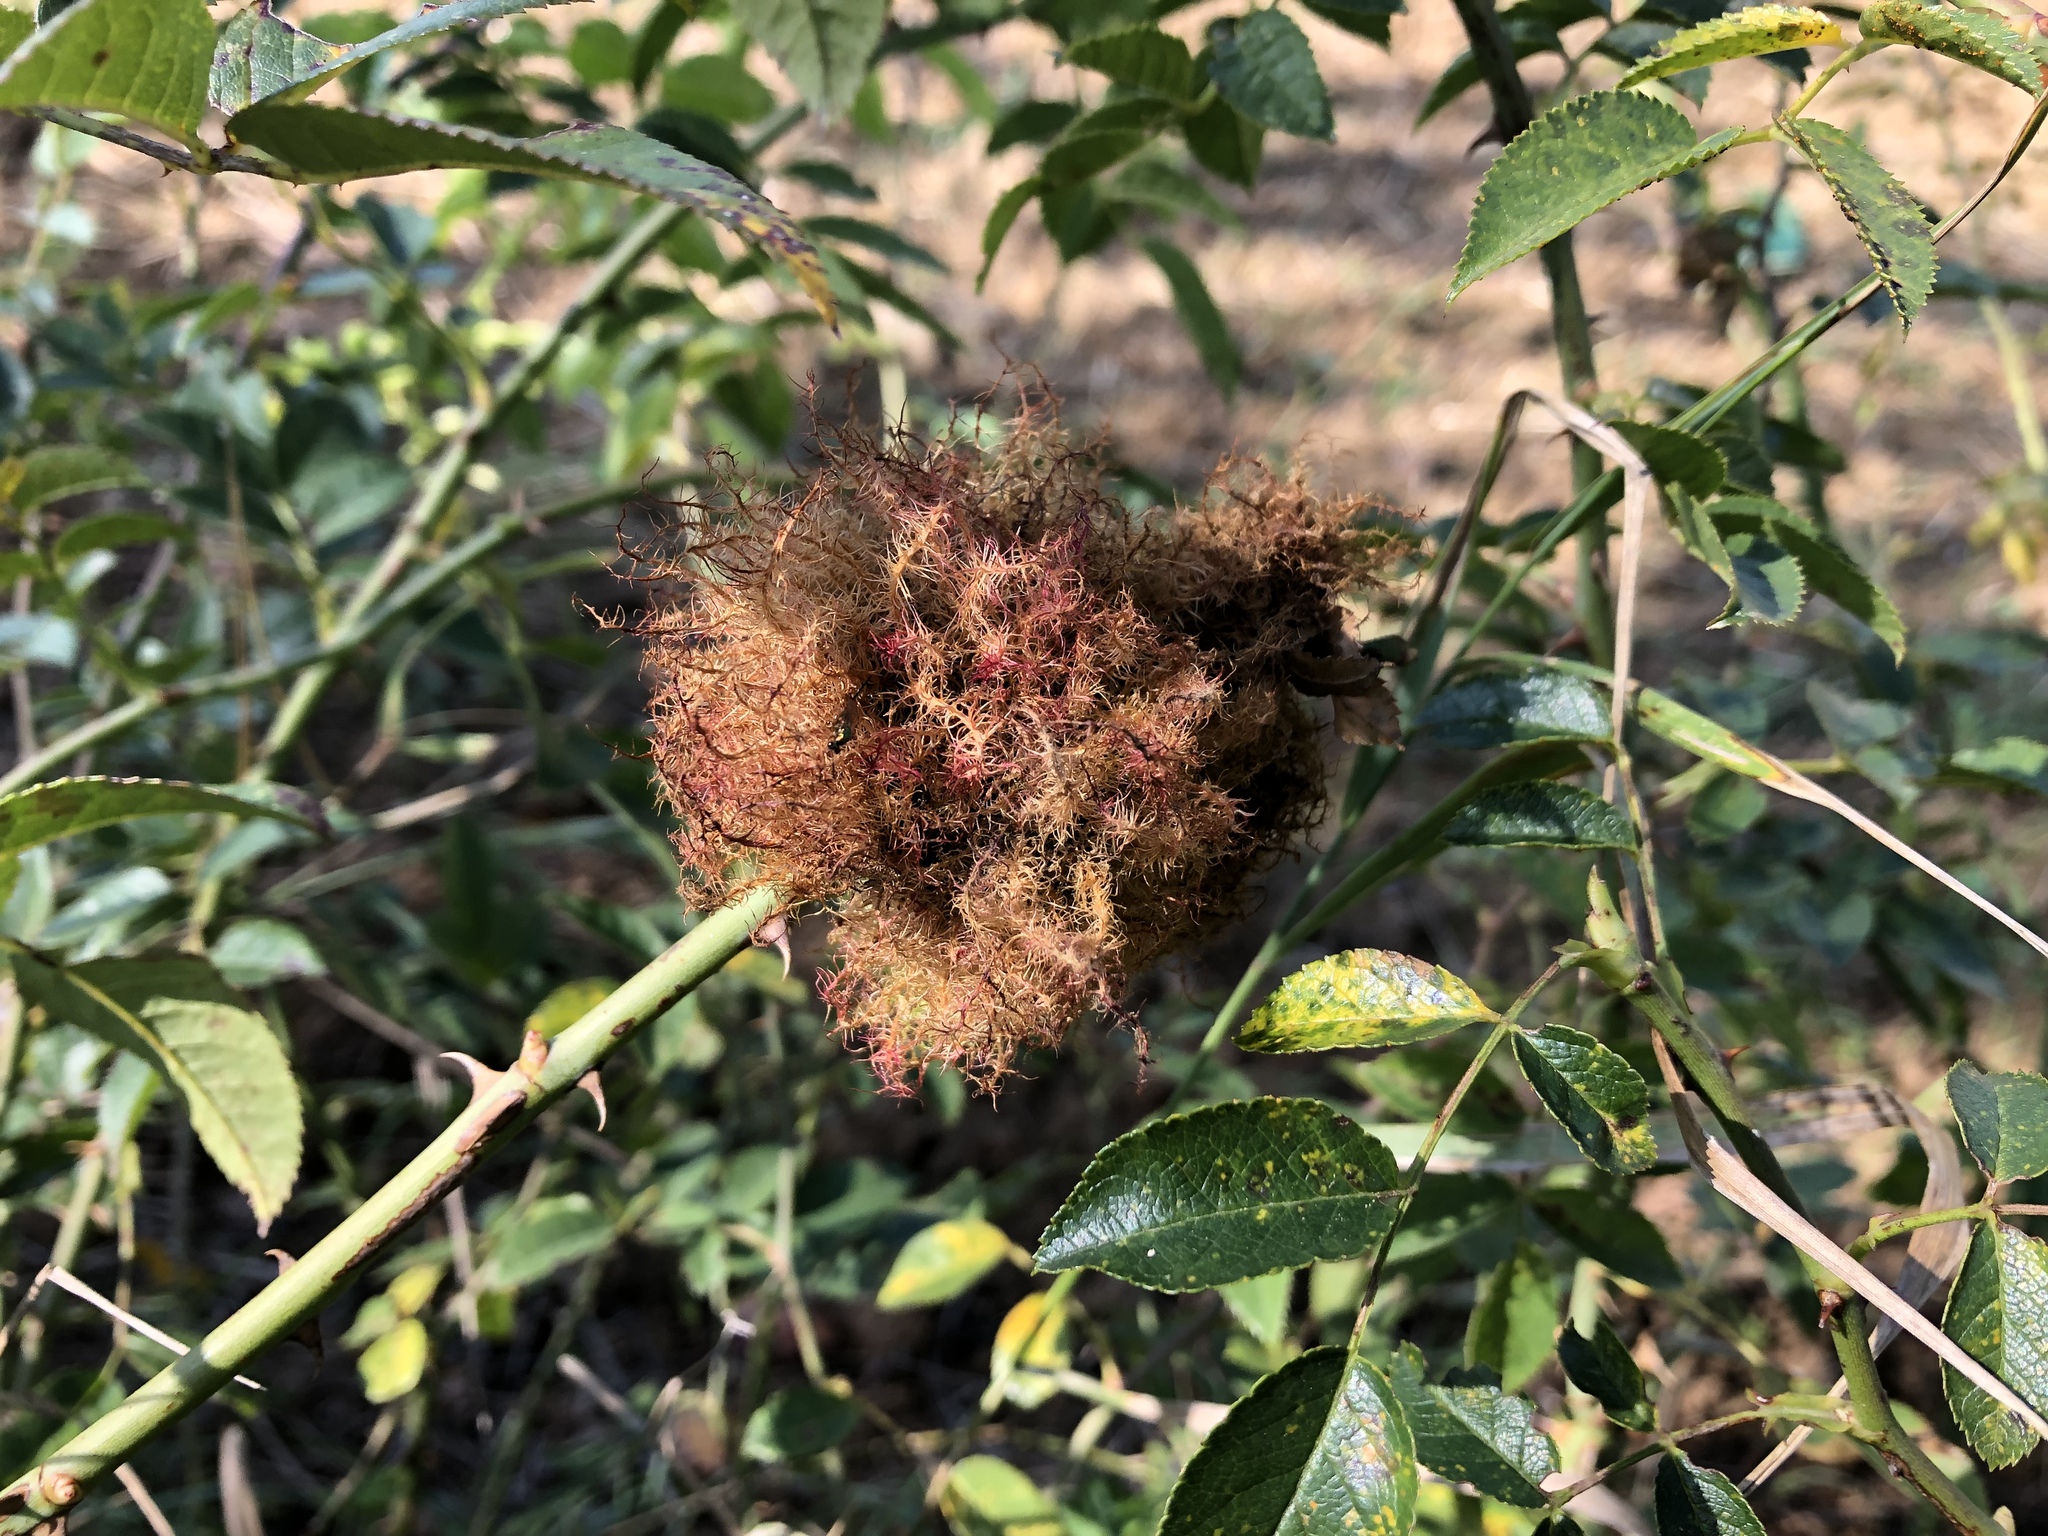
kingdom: Animalia
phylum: Arthropoda
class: Insecta
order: Hymenoptera
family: Cynipidae
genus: Diplolepis
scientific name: Diplolepis rosae
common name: Bedeguar gall
